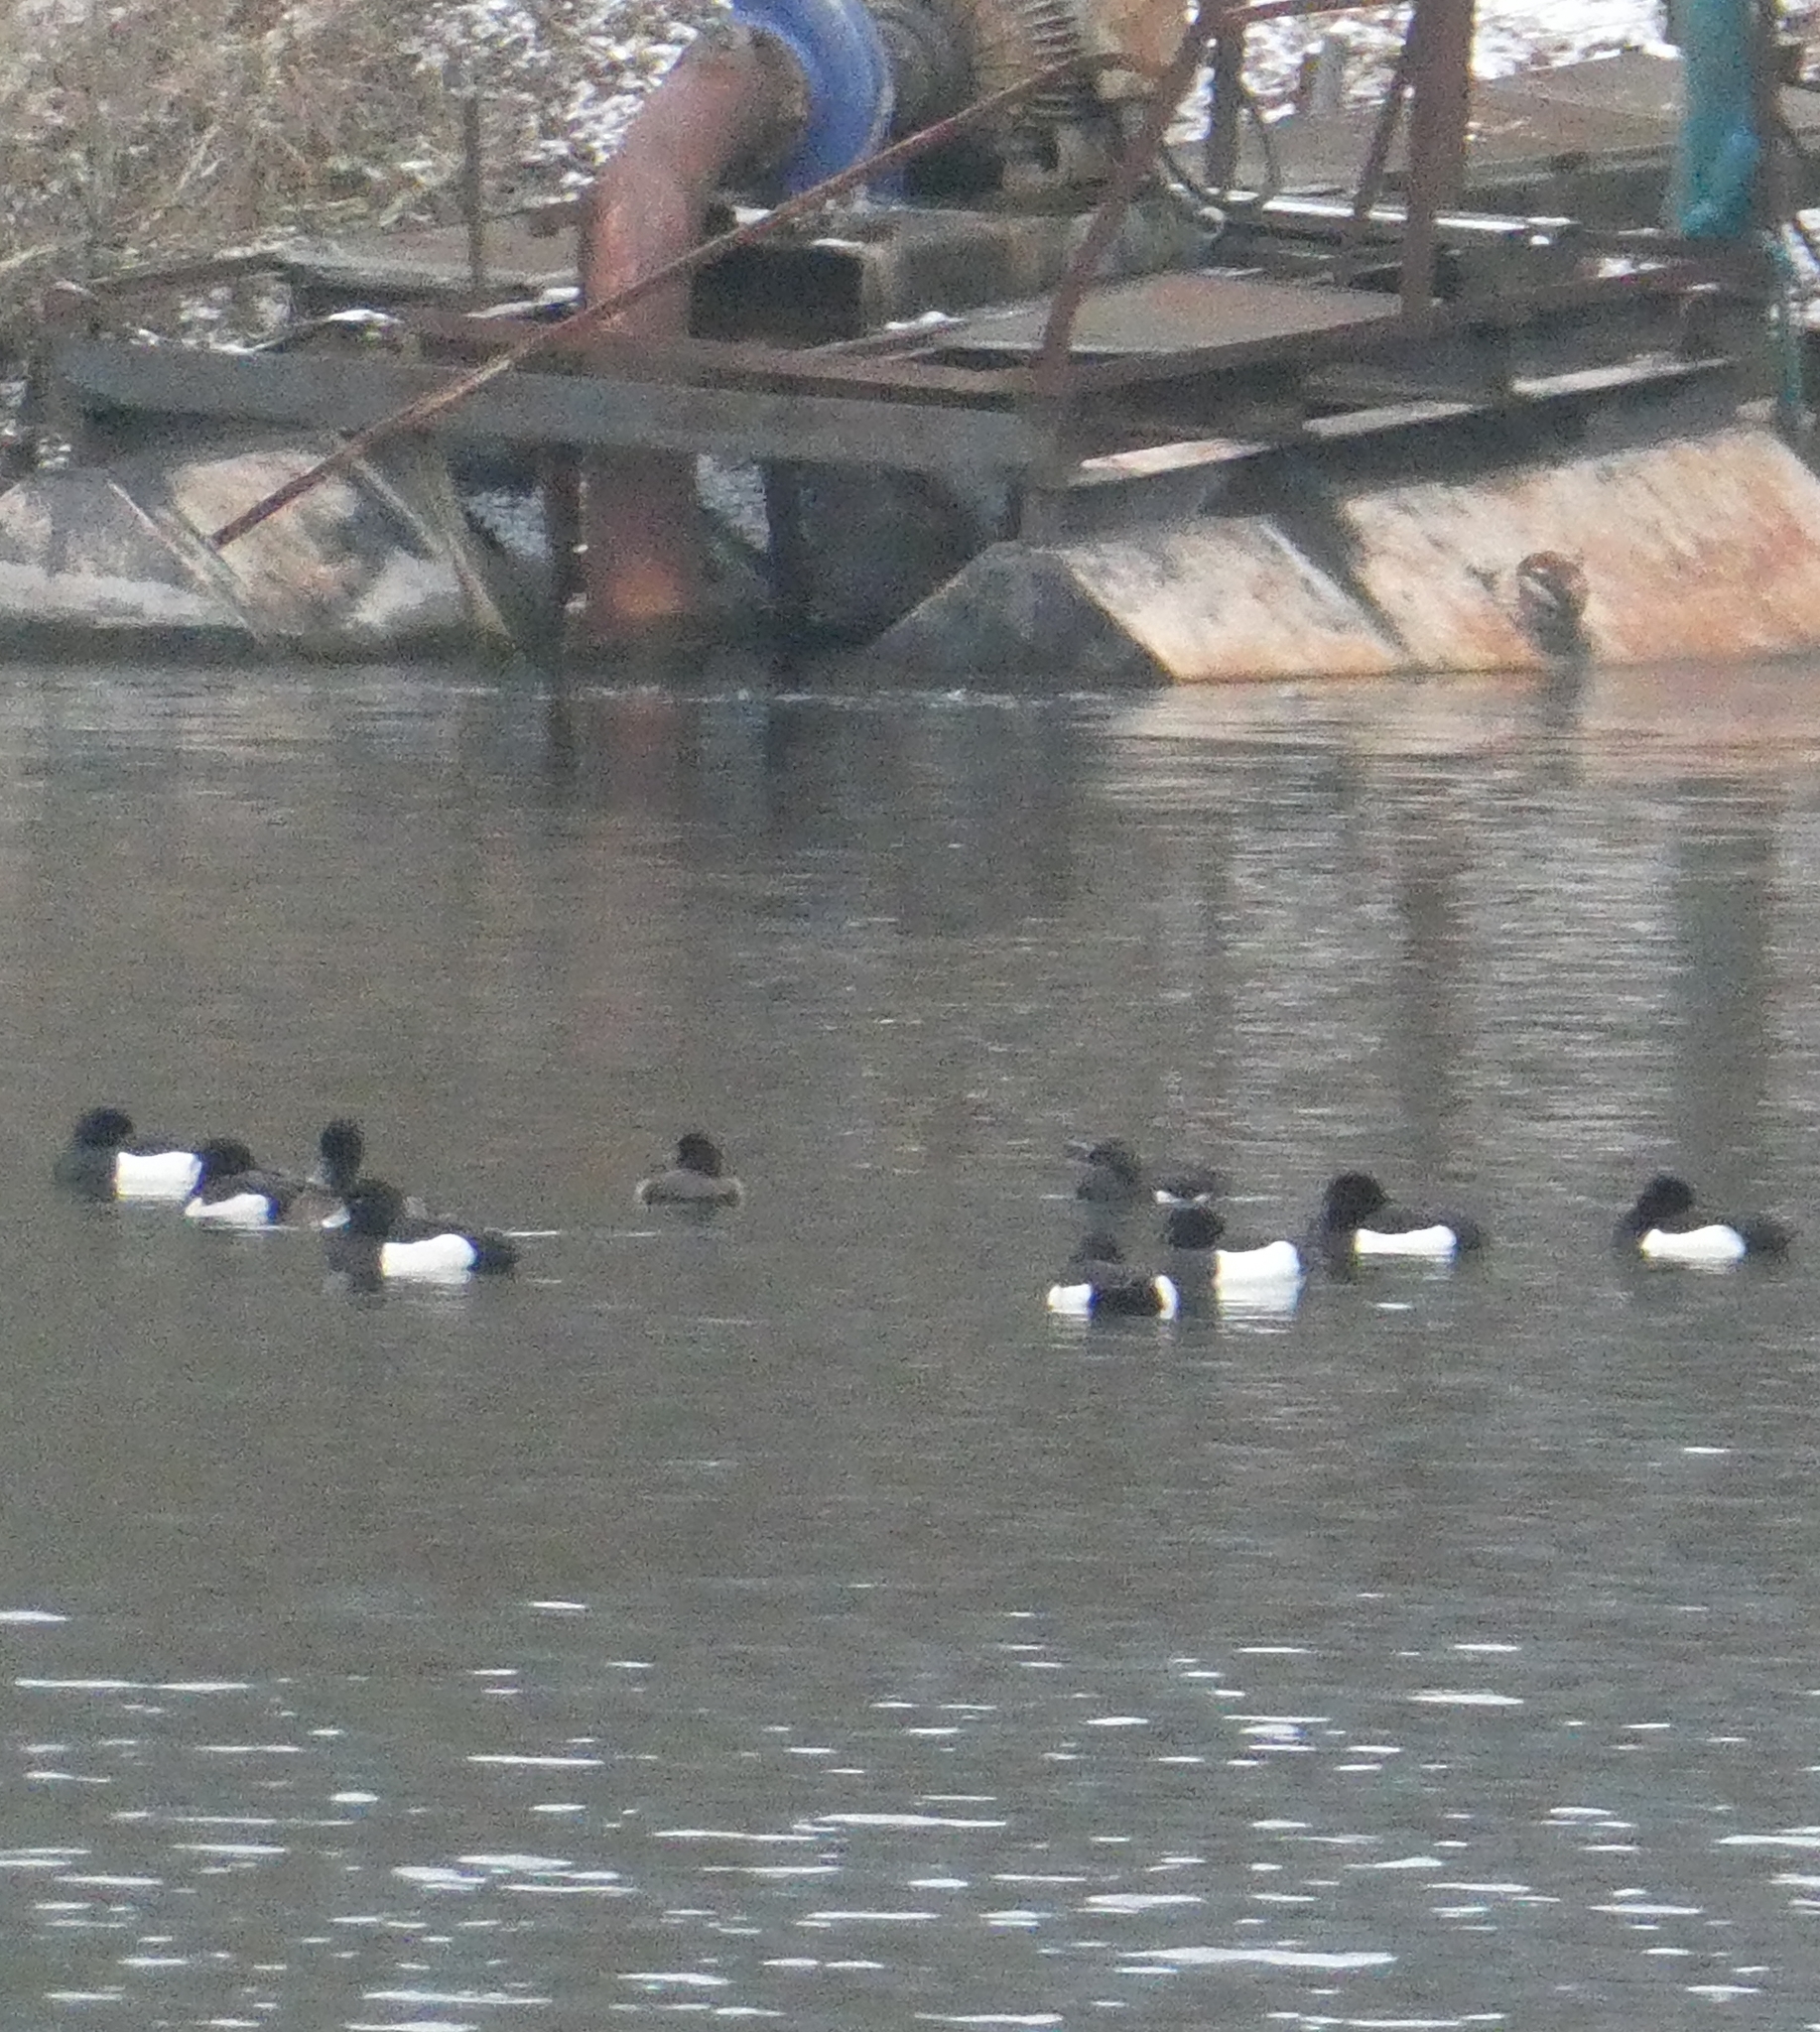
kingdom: Animalia
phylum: Chordata
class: Aves
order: Anseriformes
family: Anatidae
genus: Aythya
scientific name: Aythya fuligula
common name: Tufted duck
